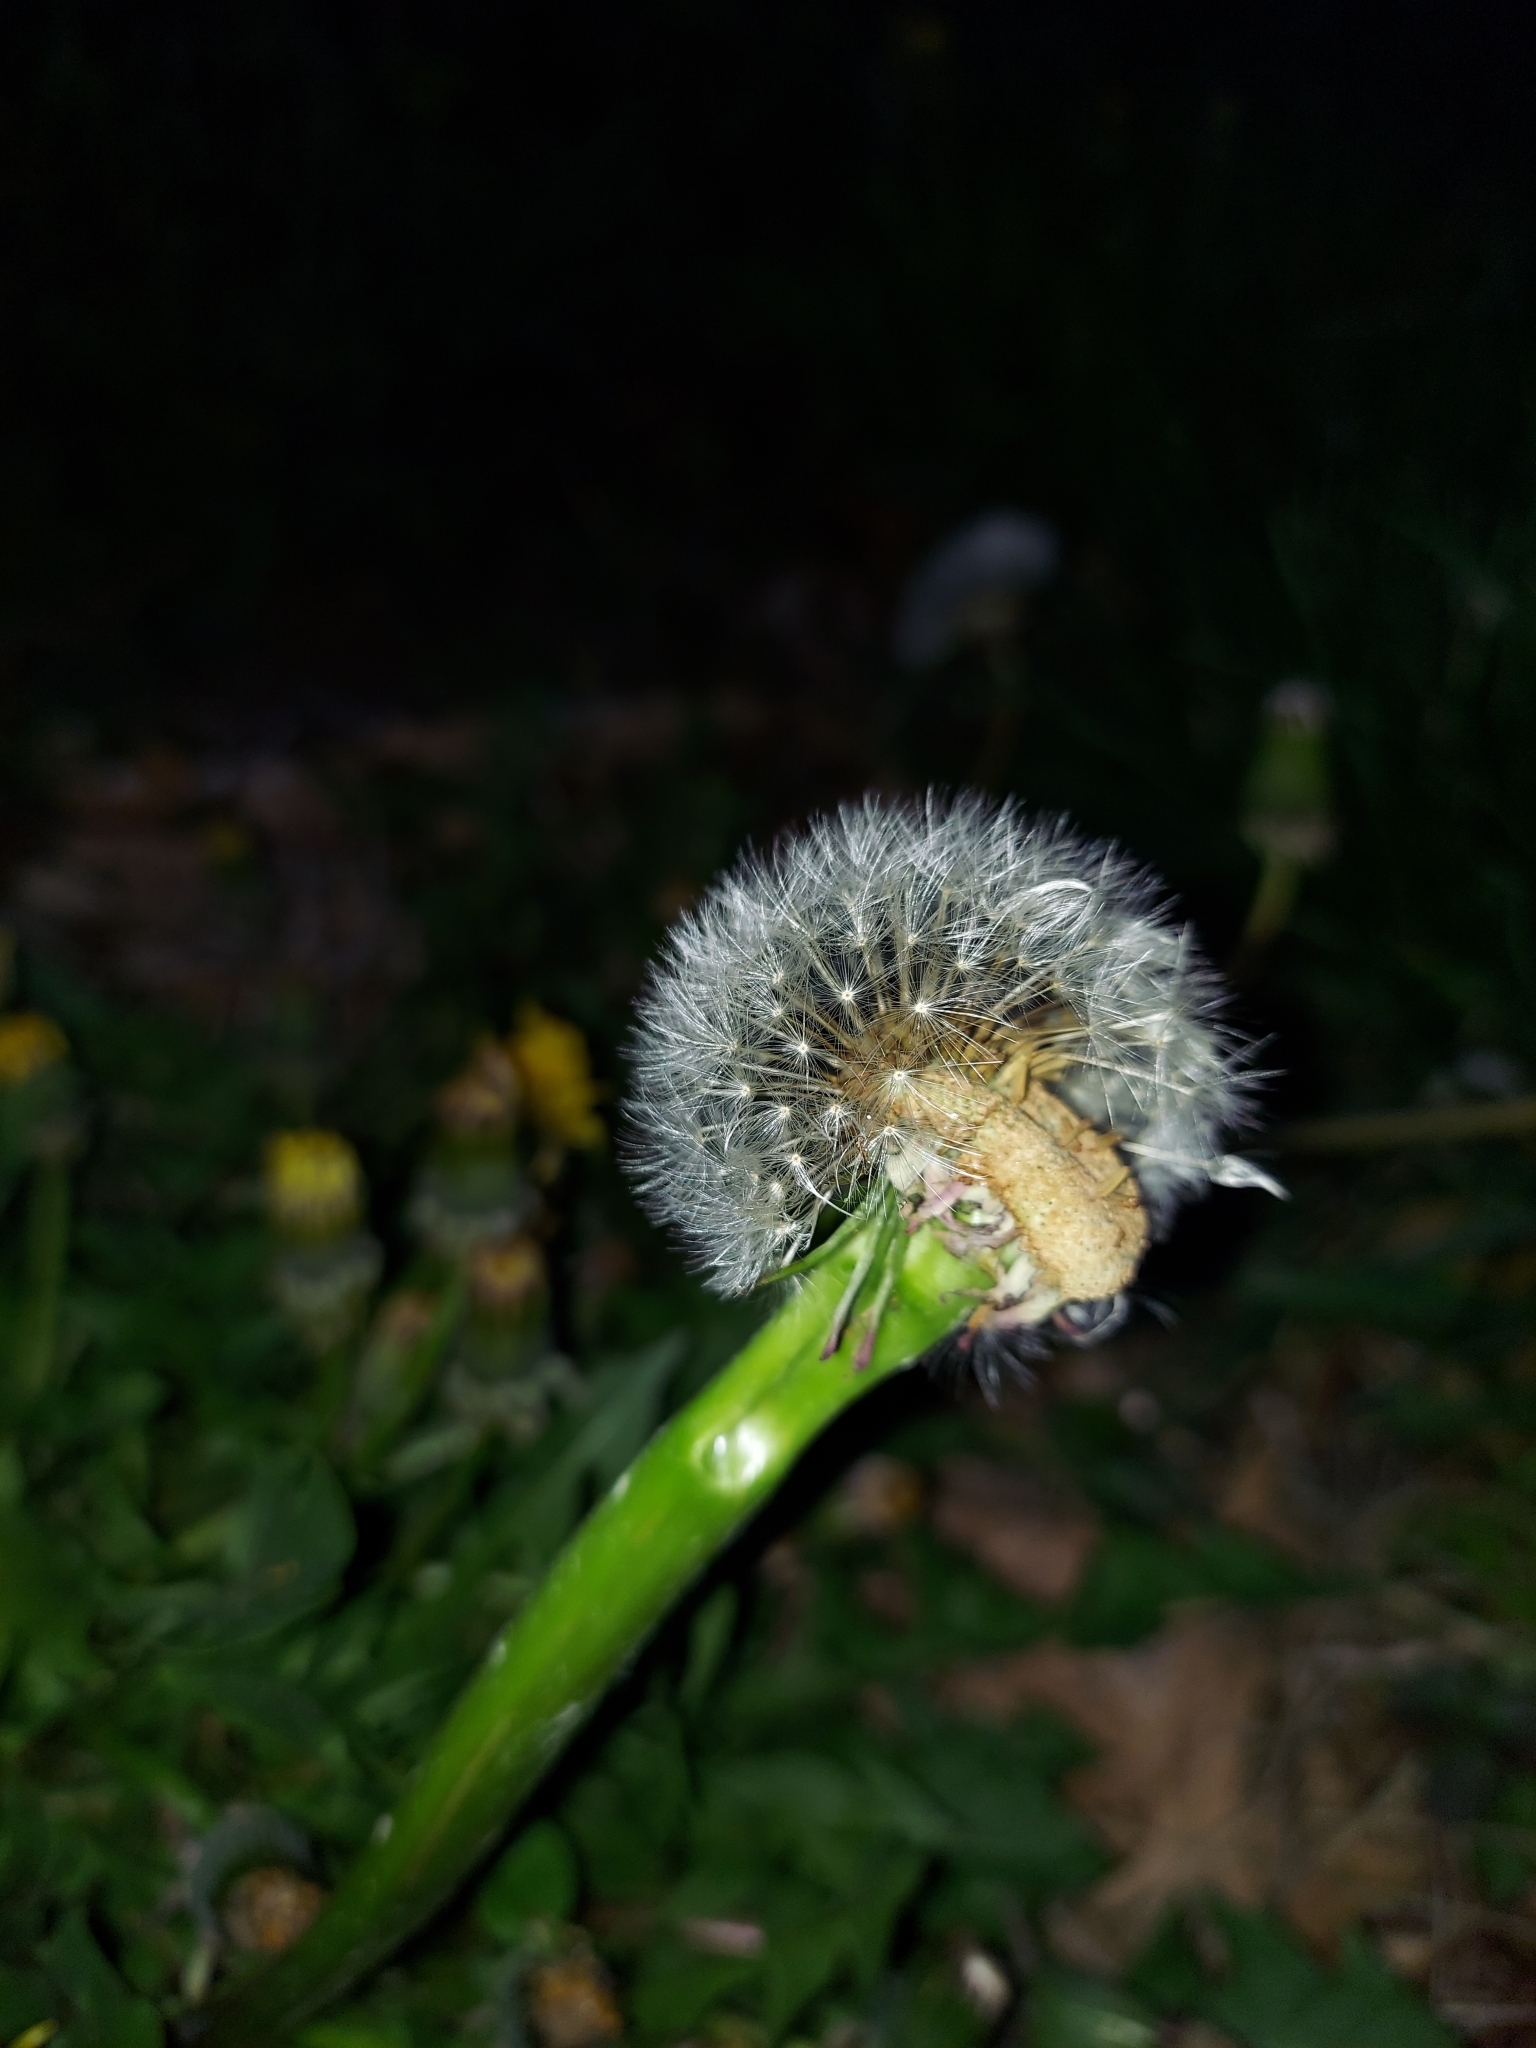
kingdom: Plantae
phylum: Tracheophyta
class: Magnoliopsida
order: Asterales
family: Asteraceae
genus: Taraxacum
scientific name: Taraxacum officinale
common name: Common dandelion
